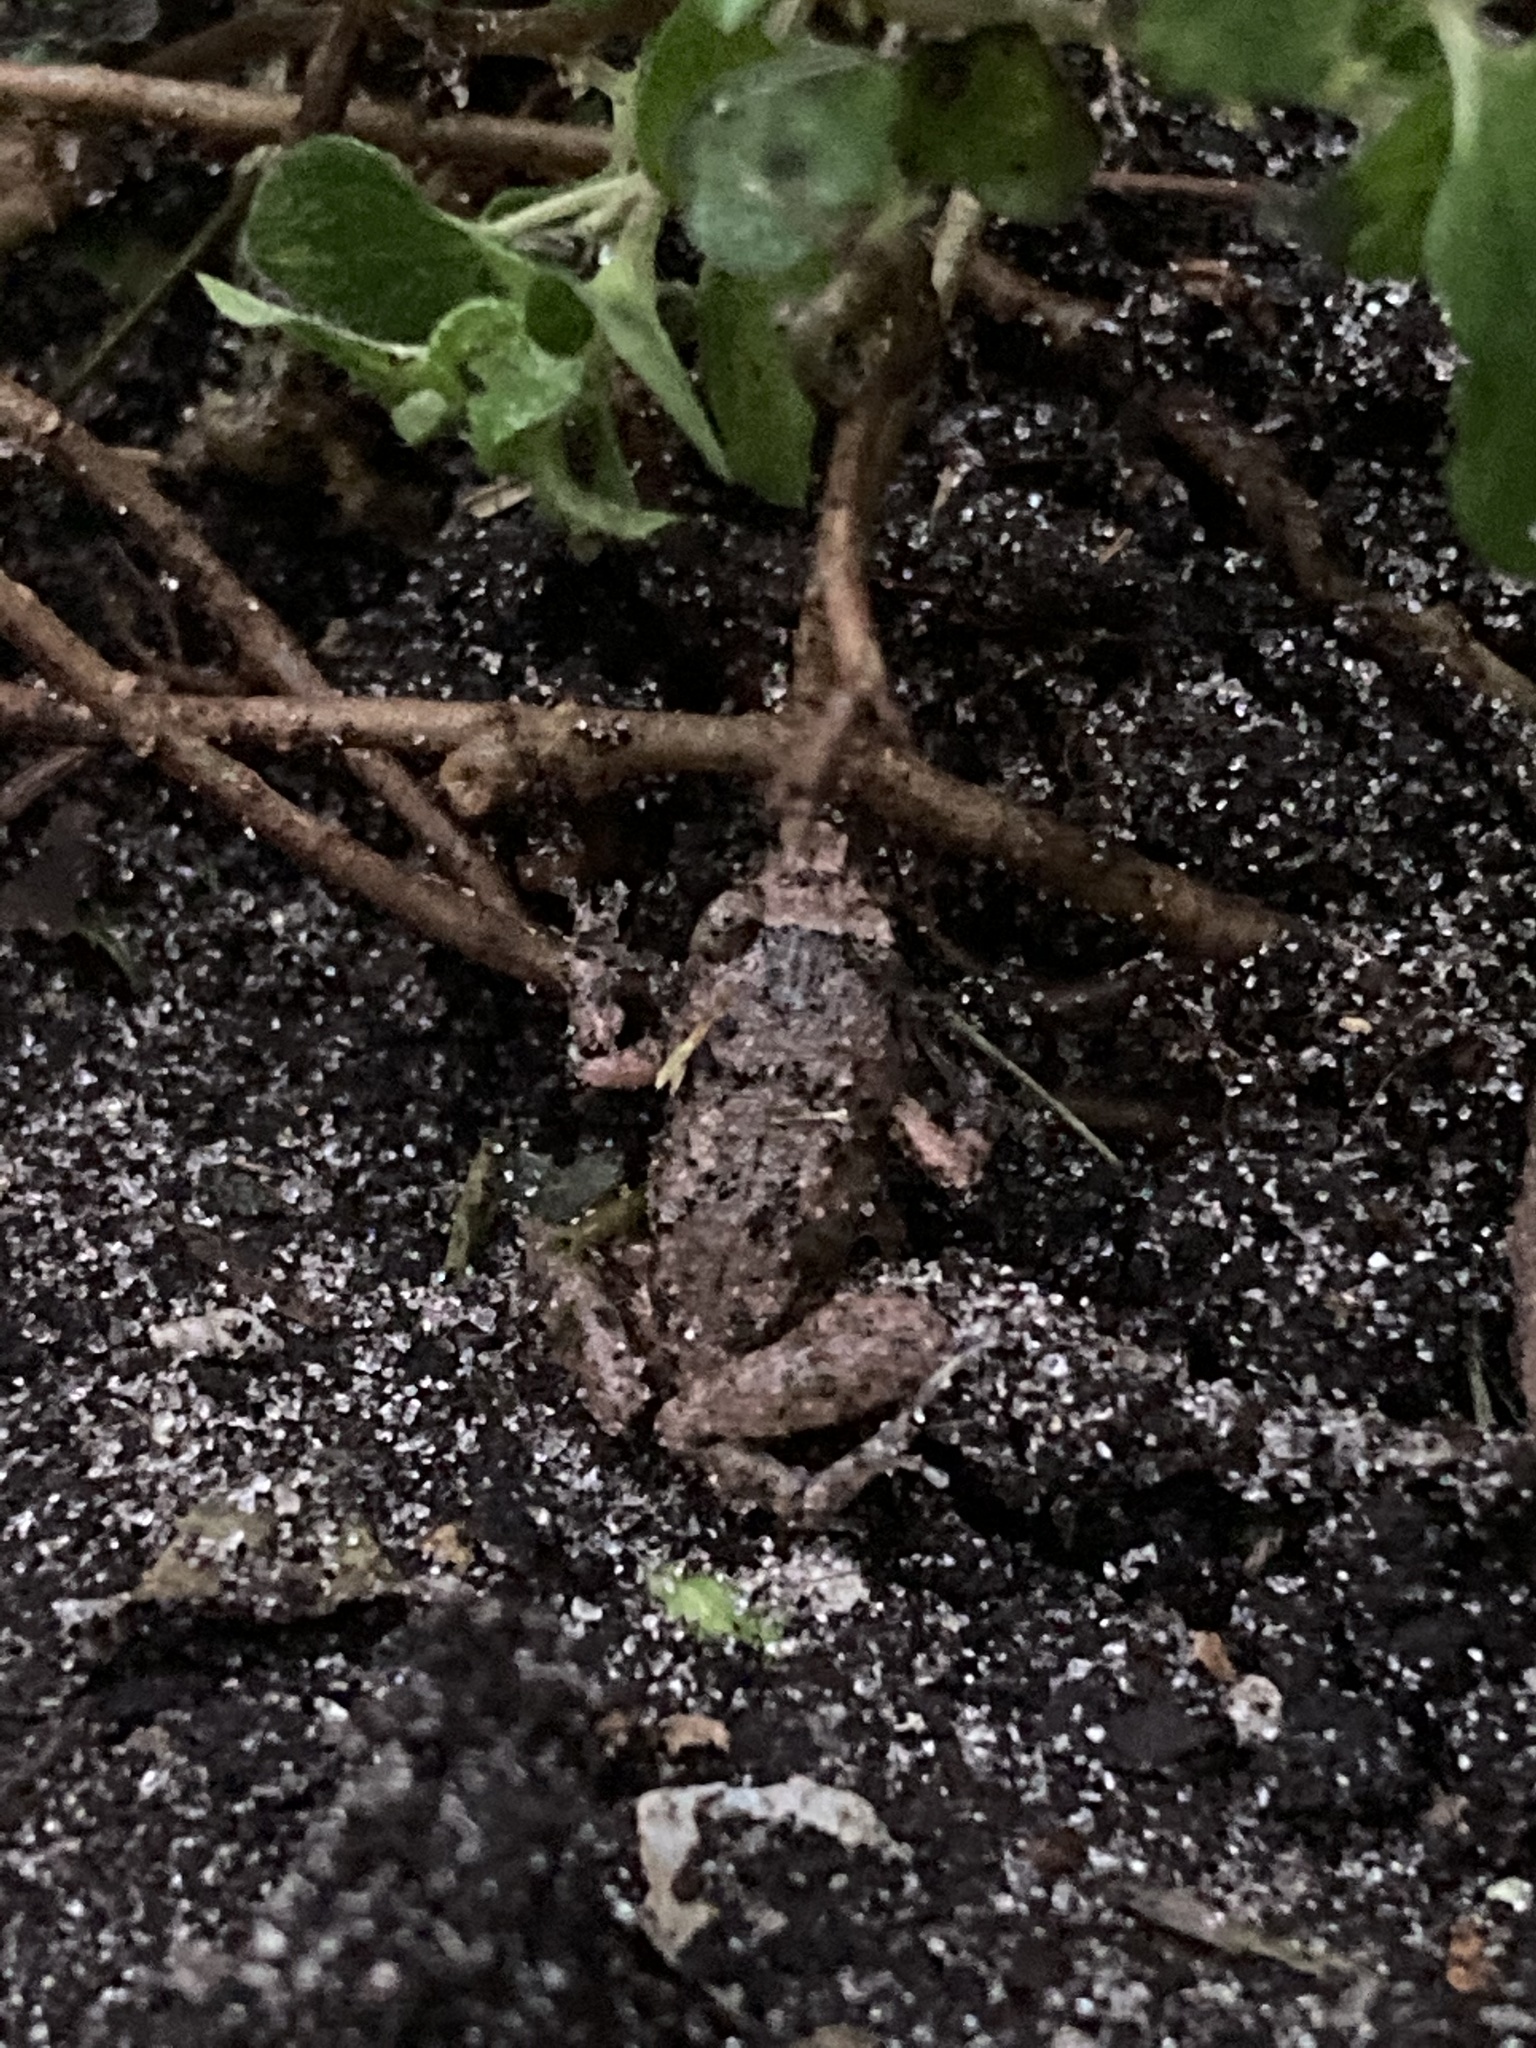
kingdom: Animalia
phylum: Chordata
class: Amphibia
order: Anura
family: Eleutherodactylidae
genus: Eleutherodactylus
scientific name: Eleutherodactylus planirostris
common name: Greenhouse frog
